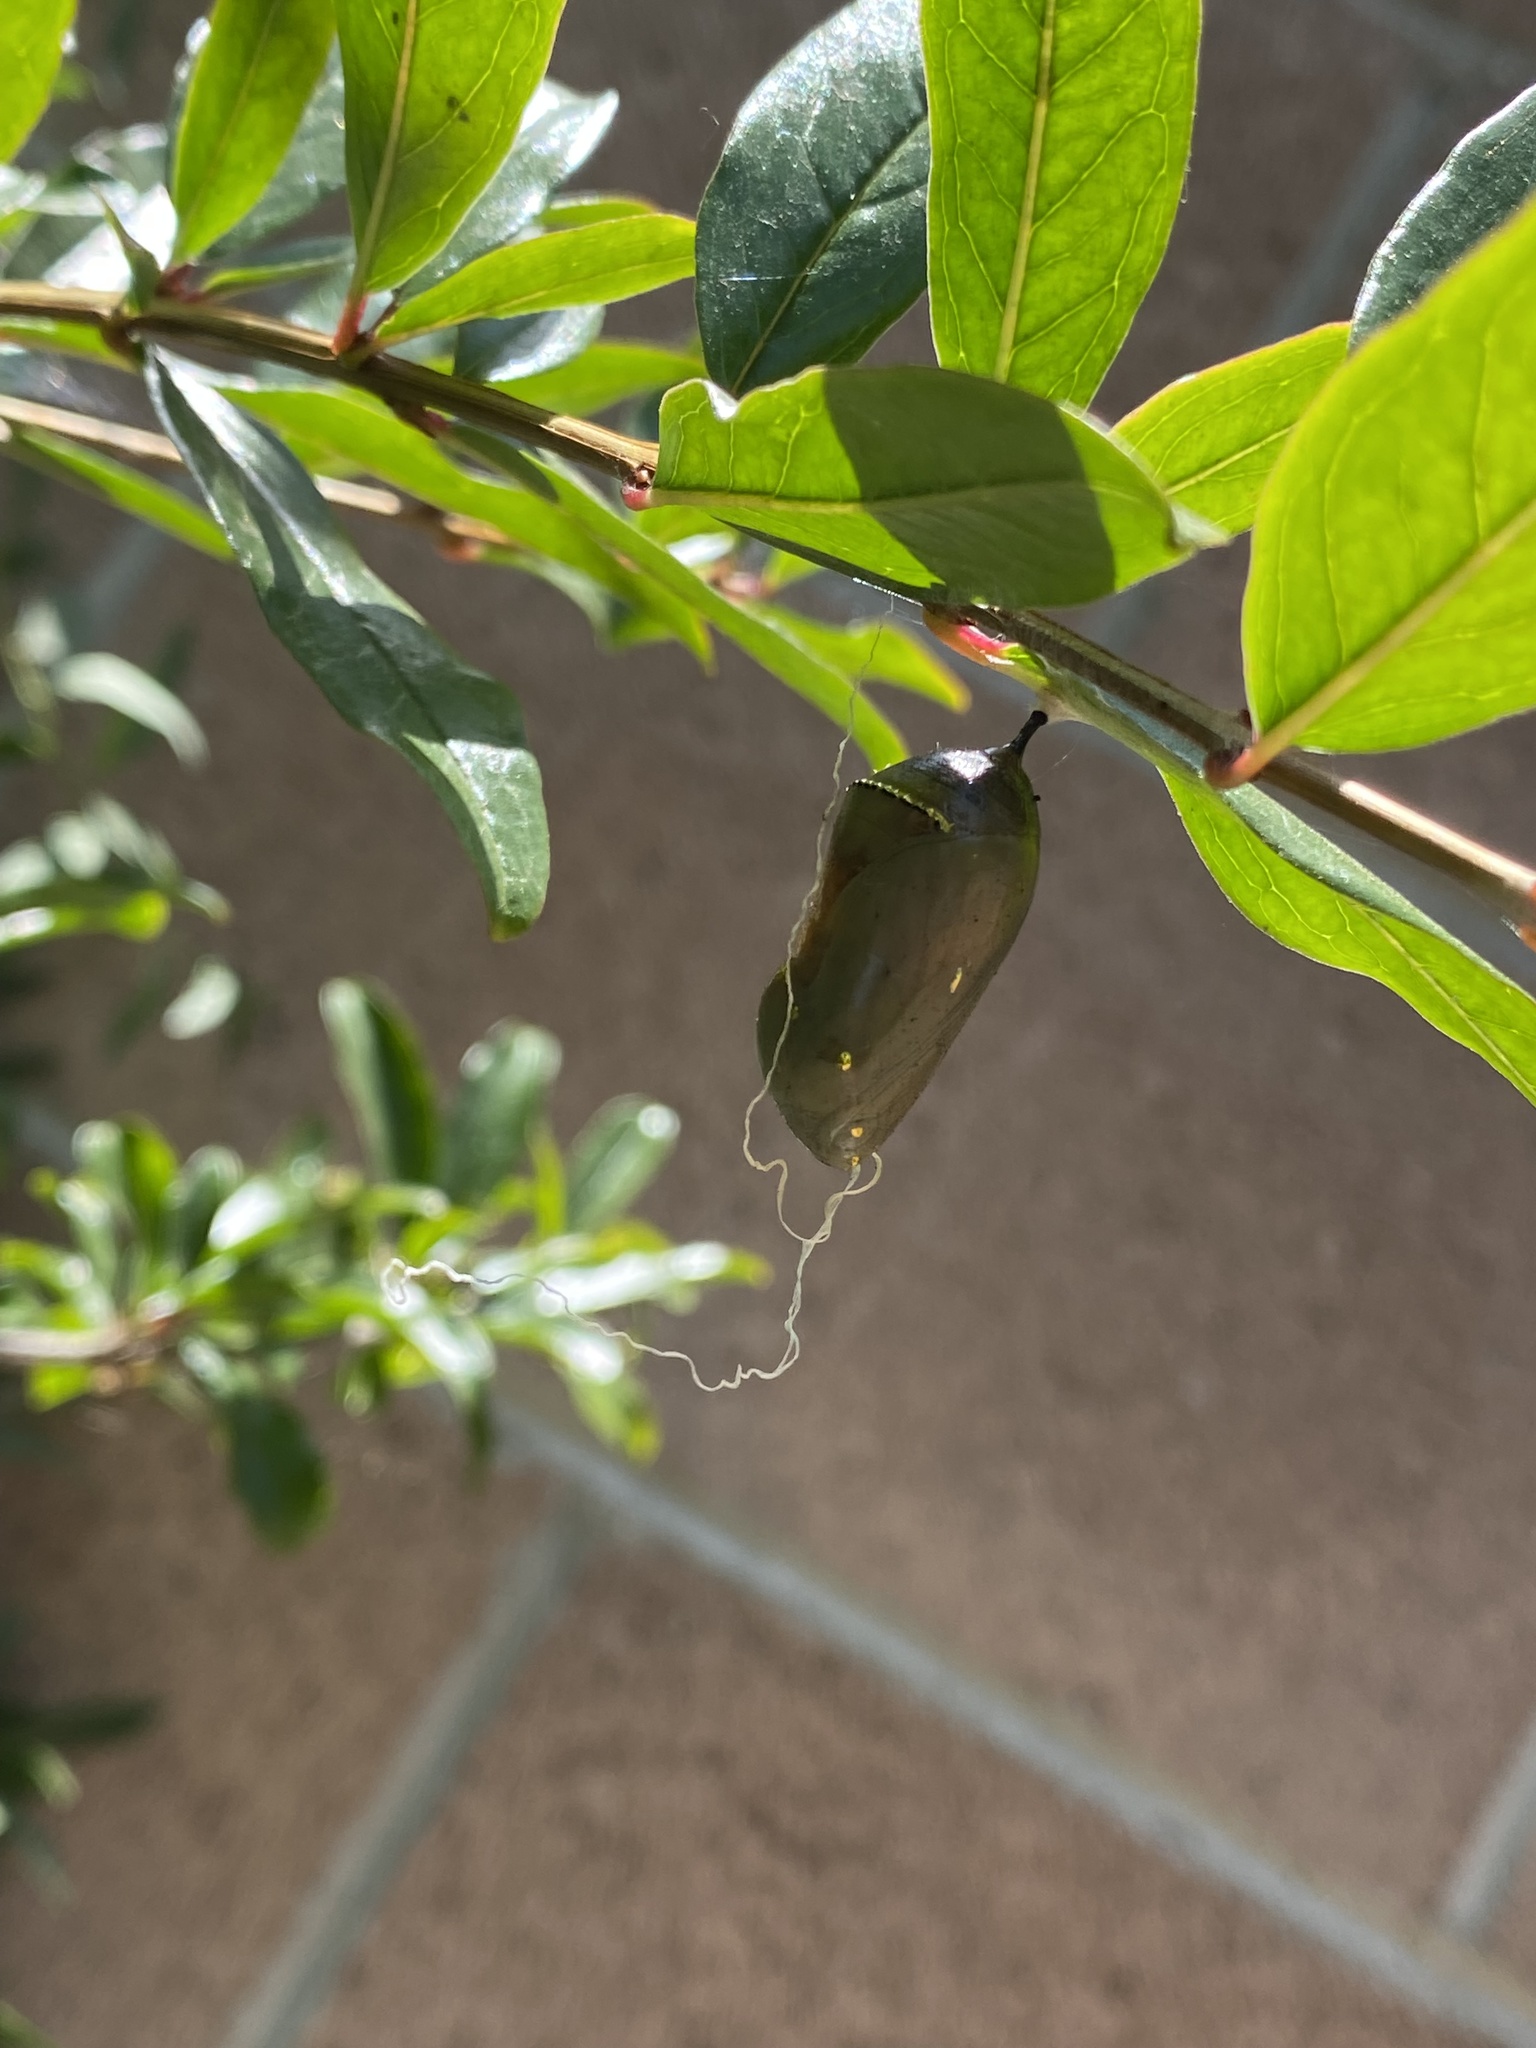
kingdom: Animalia
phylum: Arthropoda
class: Insecta
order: Lepidoptera
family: Nymphalidae
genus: Danaus
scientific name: Danaus plexippus
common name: Monarch
